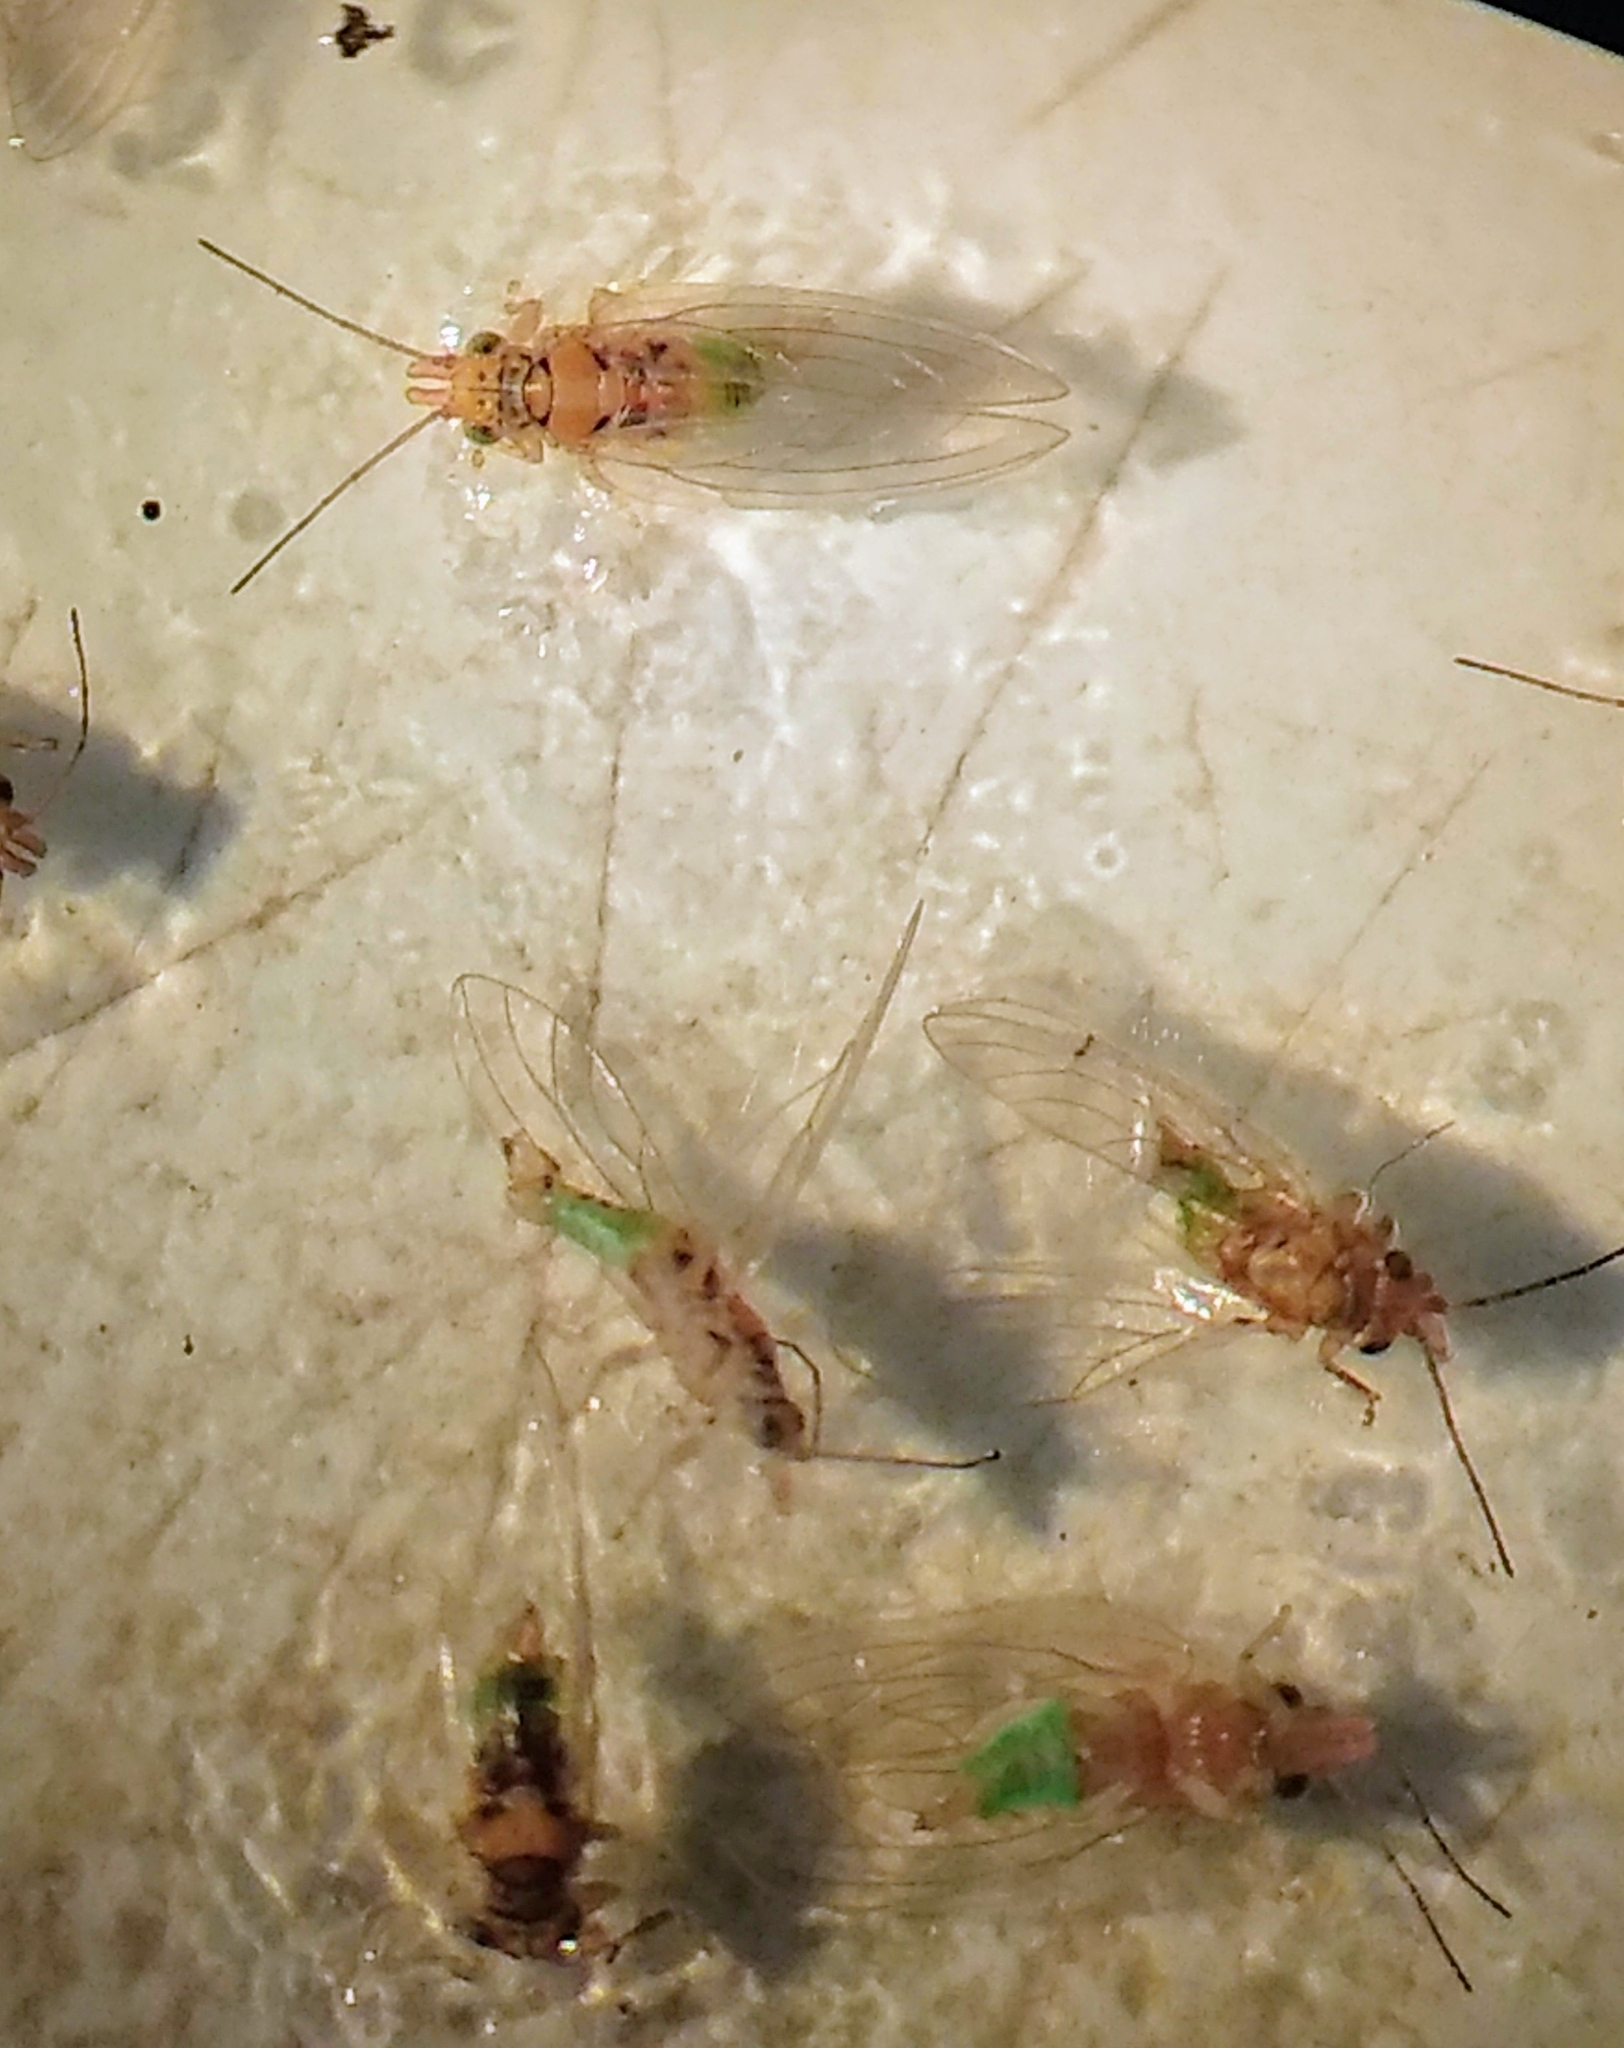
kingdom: Animalia
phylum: Arthropoda
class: Insecta
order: Hemiptera
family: Aphalaridae
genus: Glycaspis
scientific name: Glycaspis brimblecombei
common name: Red gum lerp psyllid
